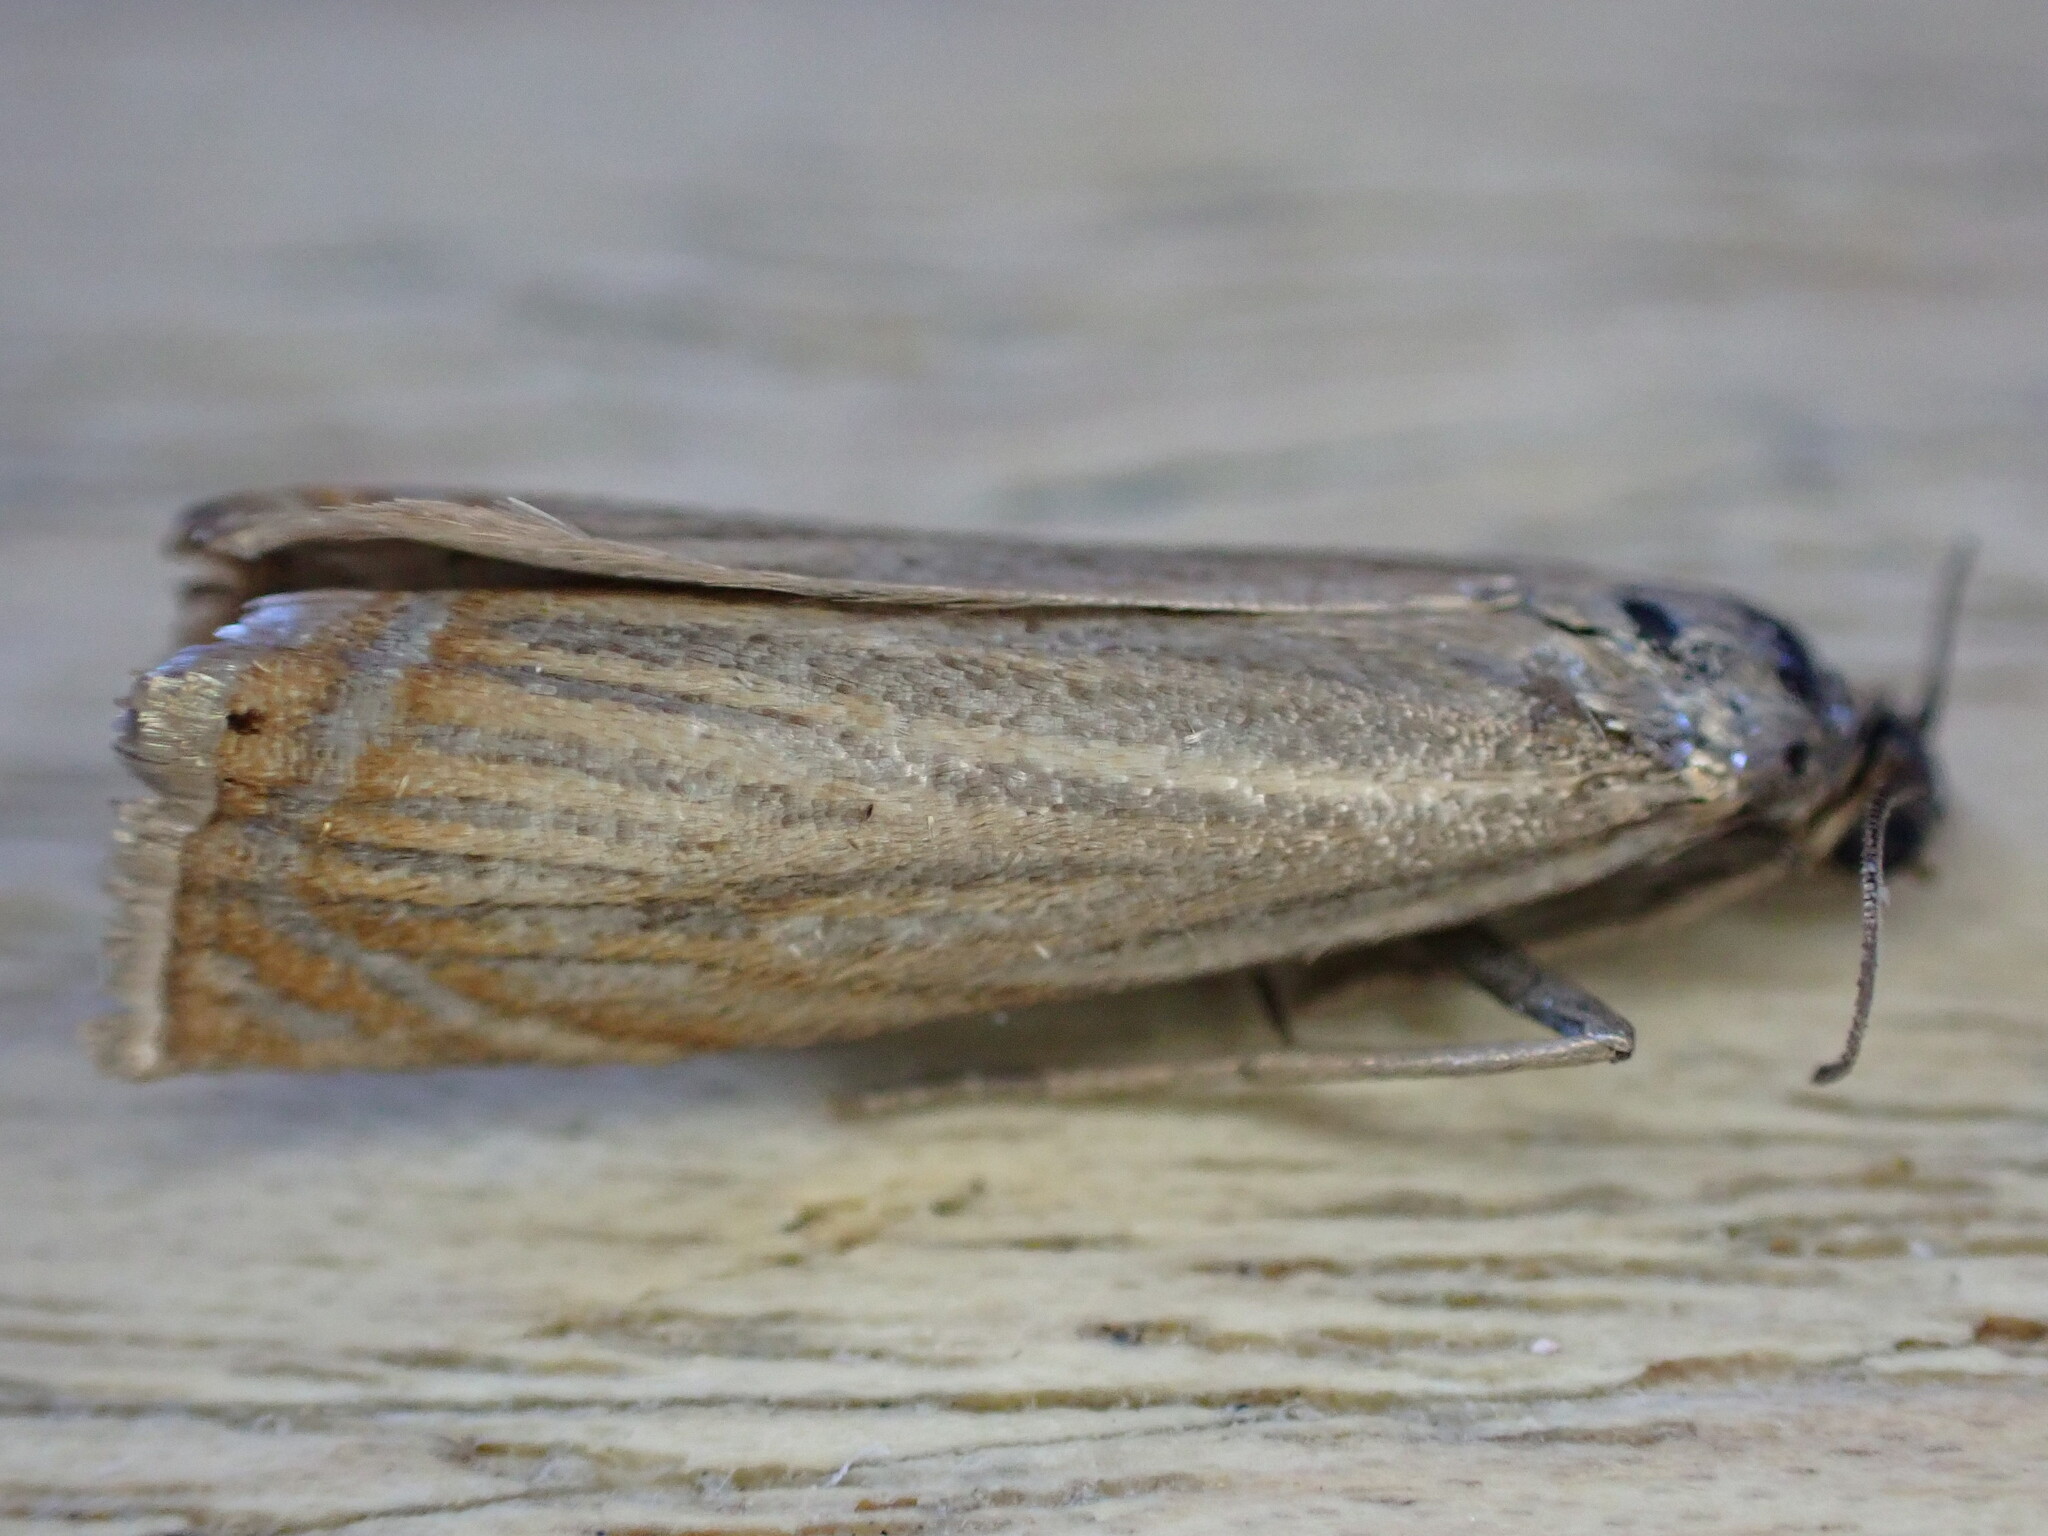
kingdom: Animalia
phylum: Arthropoda
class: Insecta
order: Lepidoptera
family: Crambidae
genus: Chrysoteuchia
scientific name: Chrysoteuchia culmella
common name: Garden grass-veneer
